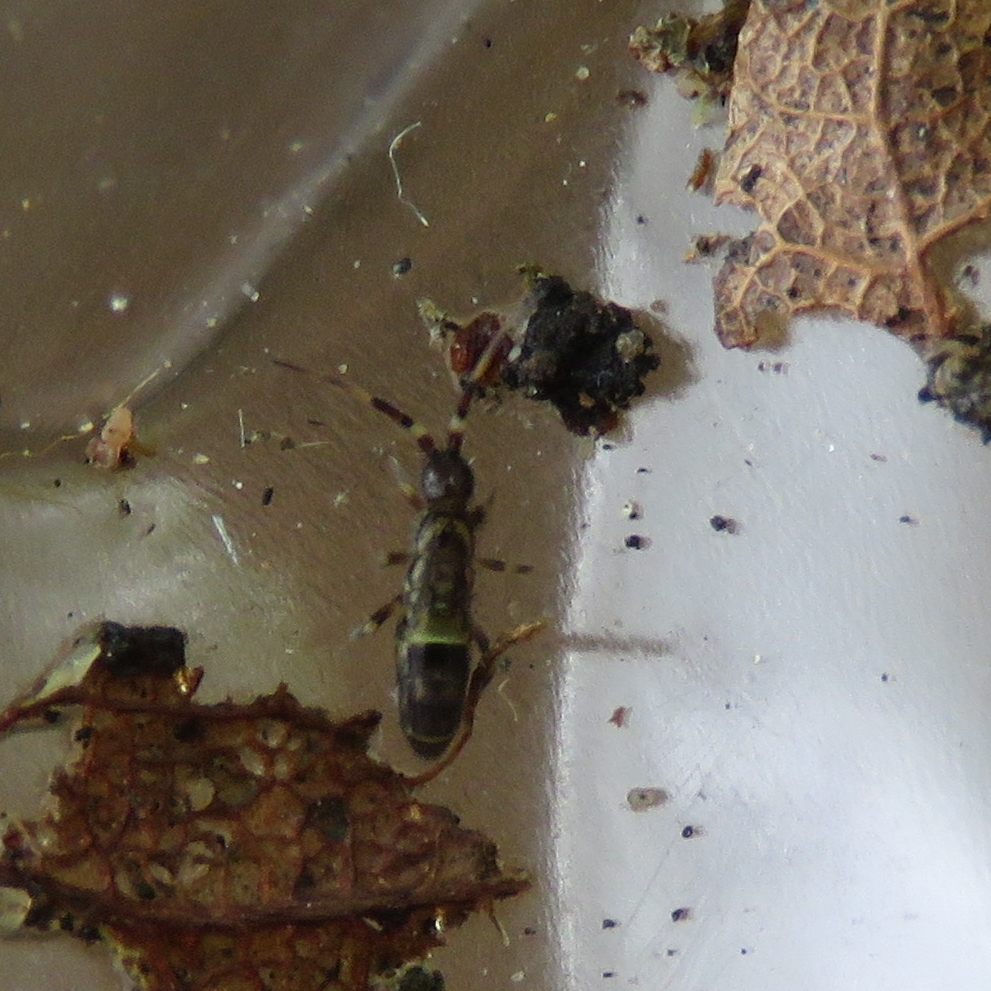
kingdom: Animalia
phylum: Arthropoda
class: Collembola
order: Entomobryomorpha
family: Orchesellidae
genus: Orchesella
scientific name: Orchesella cincta
